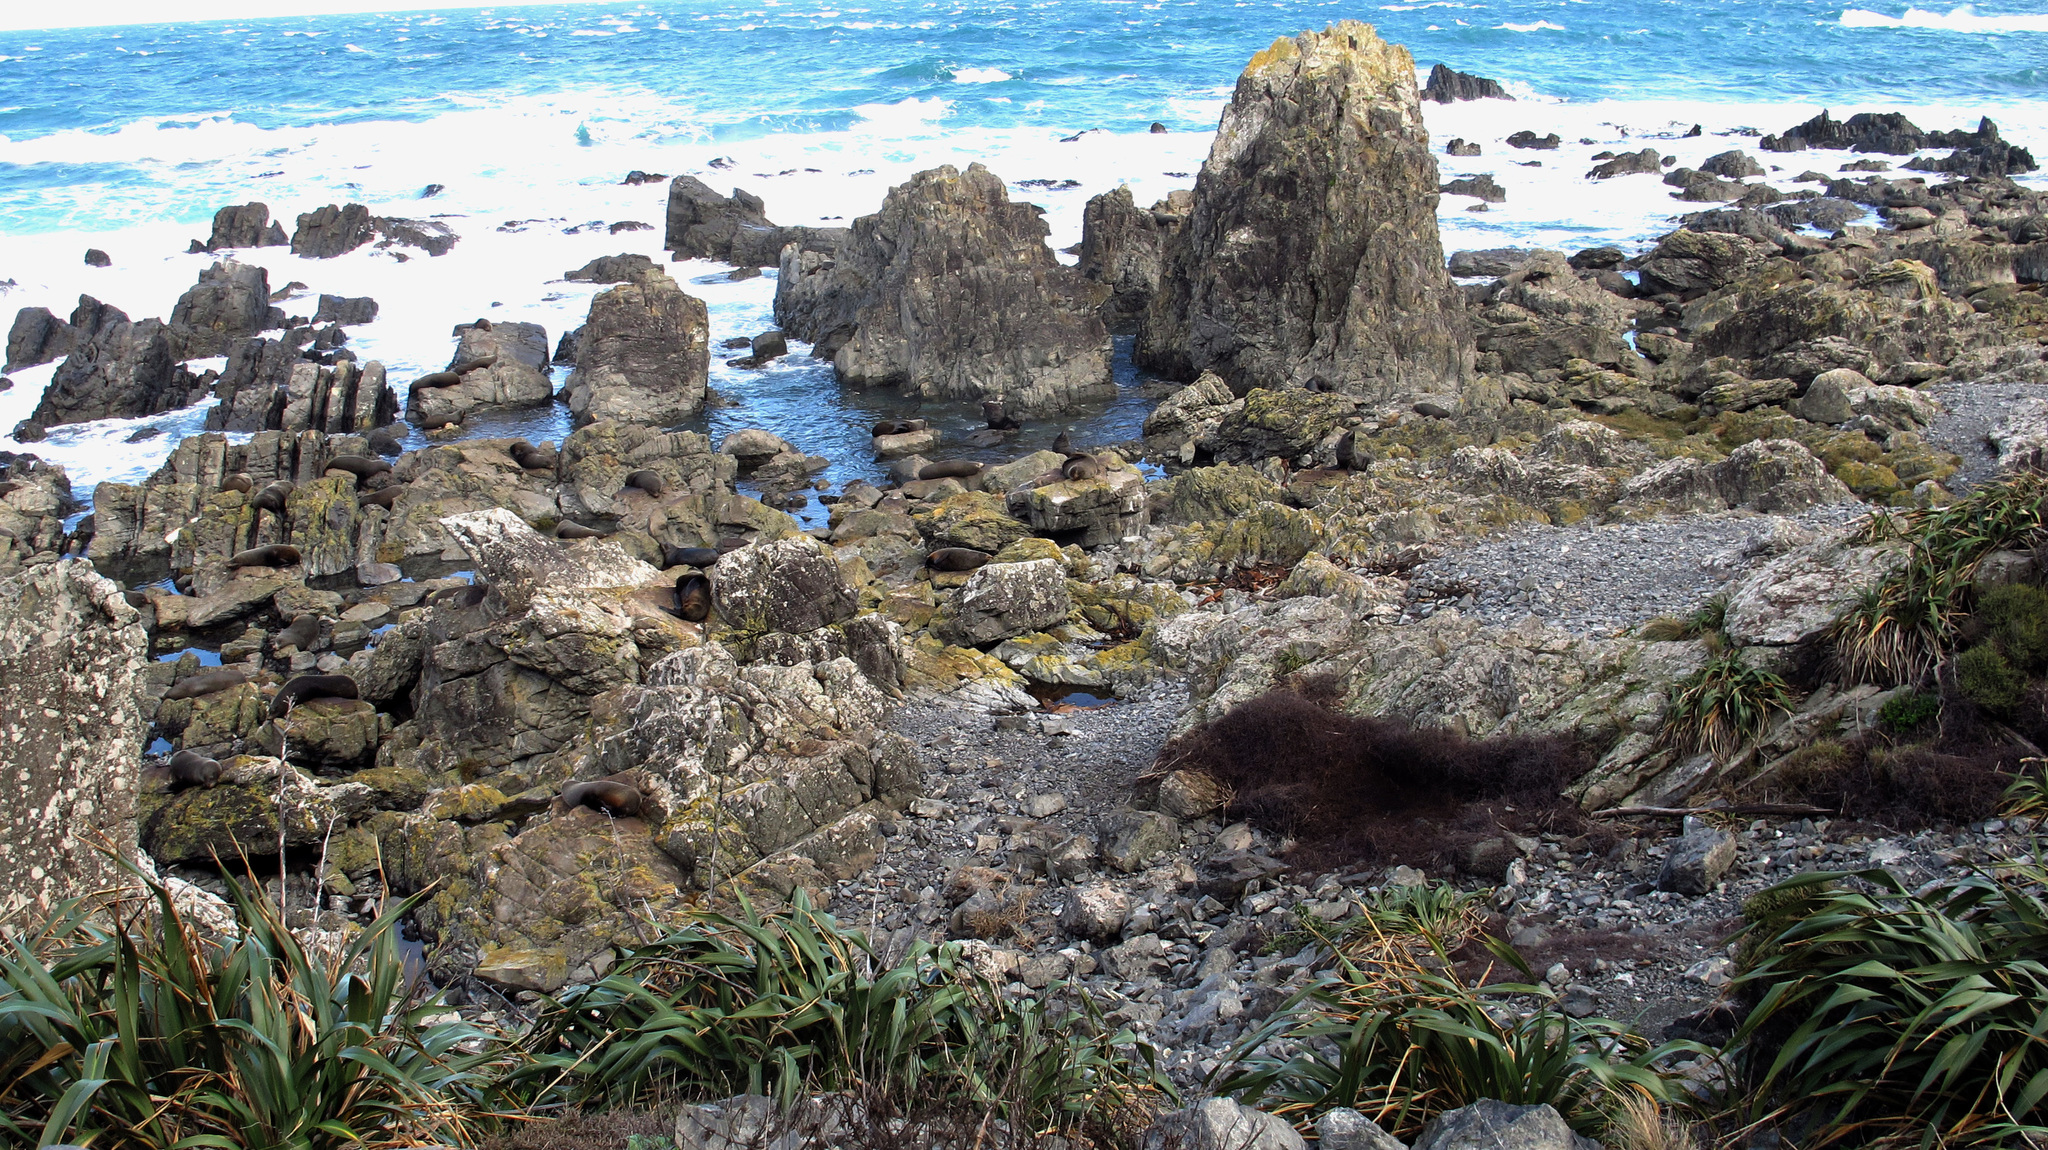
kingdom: Animalia
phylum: Chordata
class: Mammalia
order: Carnivora
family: Otariidae
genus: Arctocephalus
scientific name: Arctocephalus forsteri
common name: New zealand fur seal
